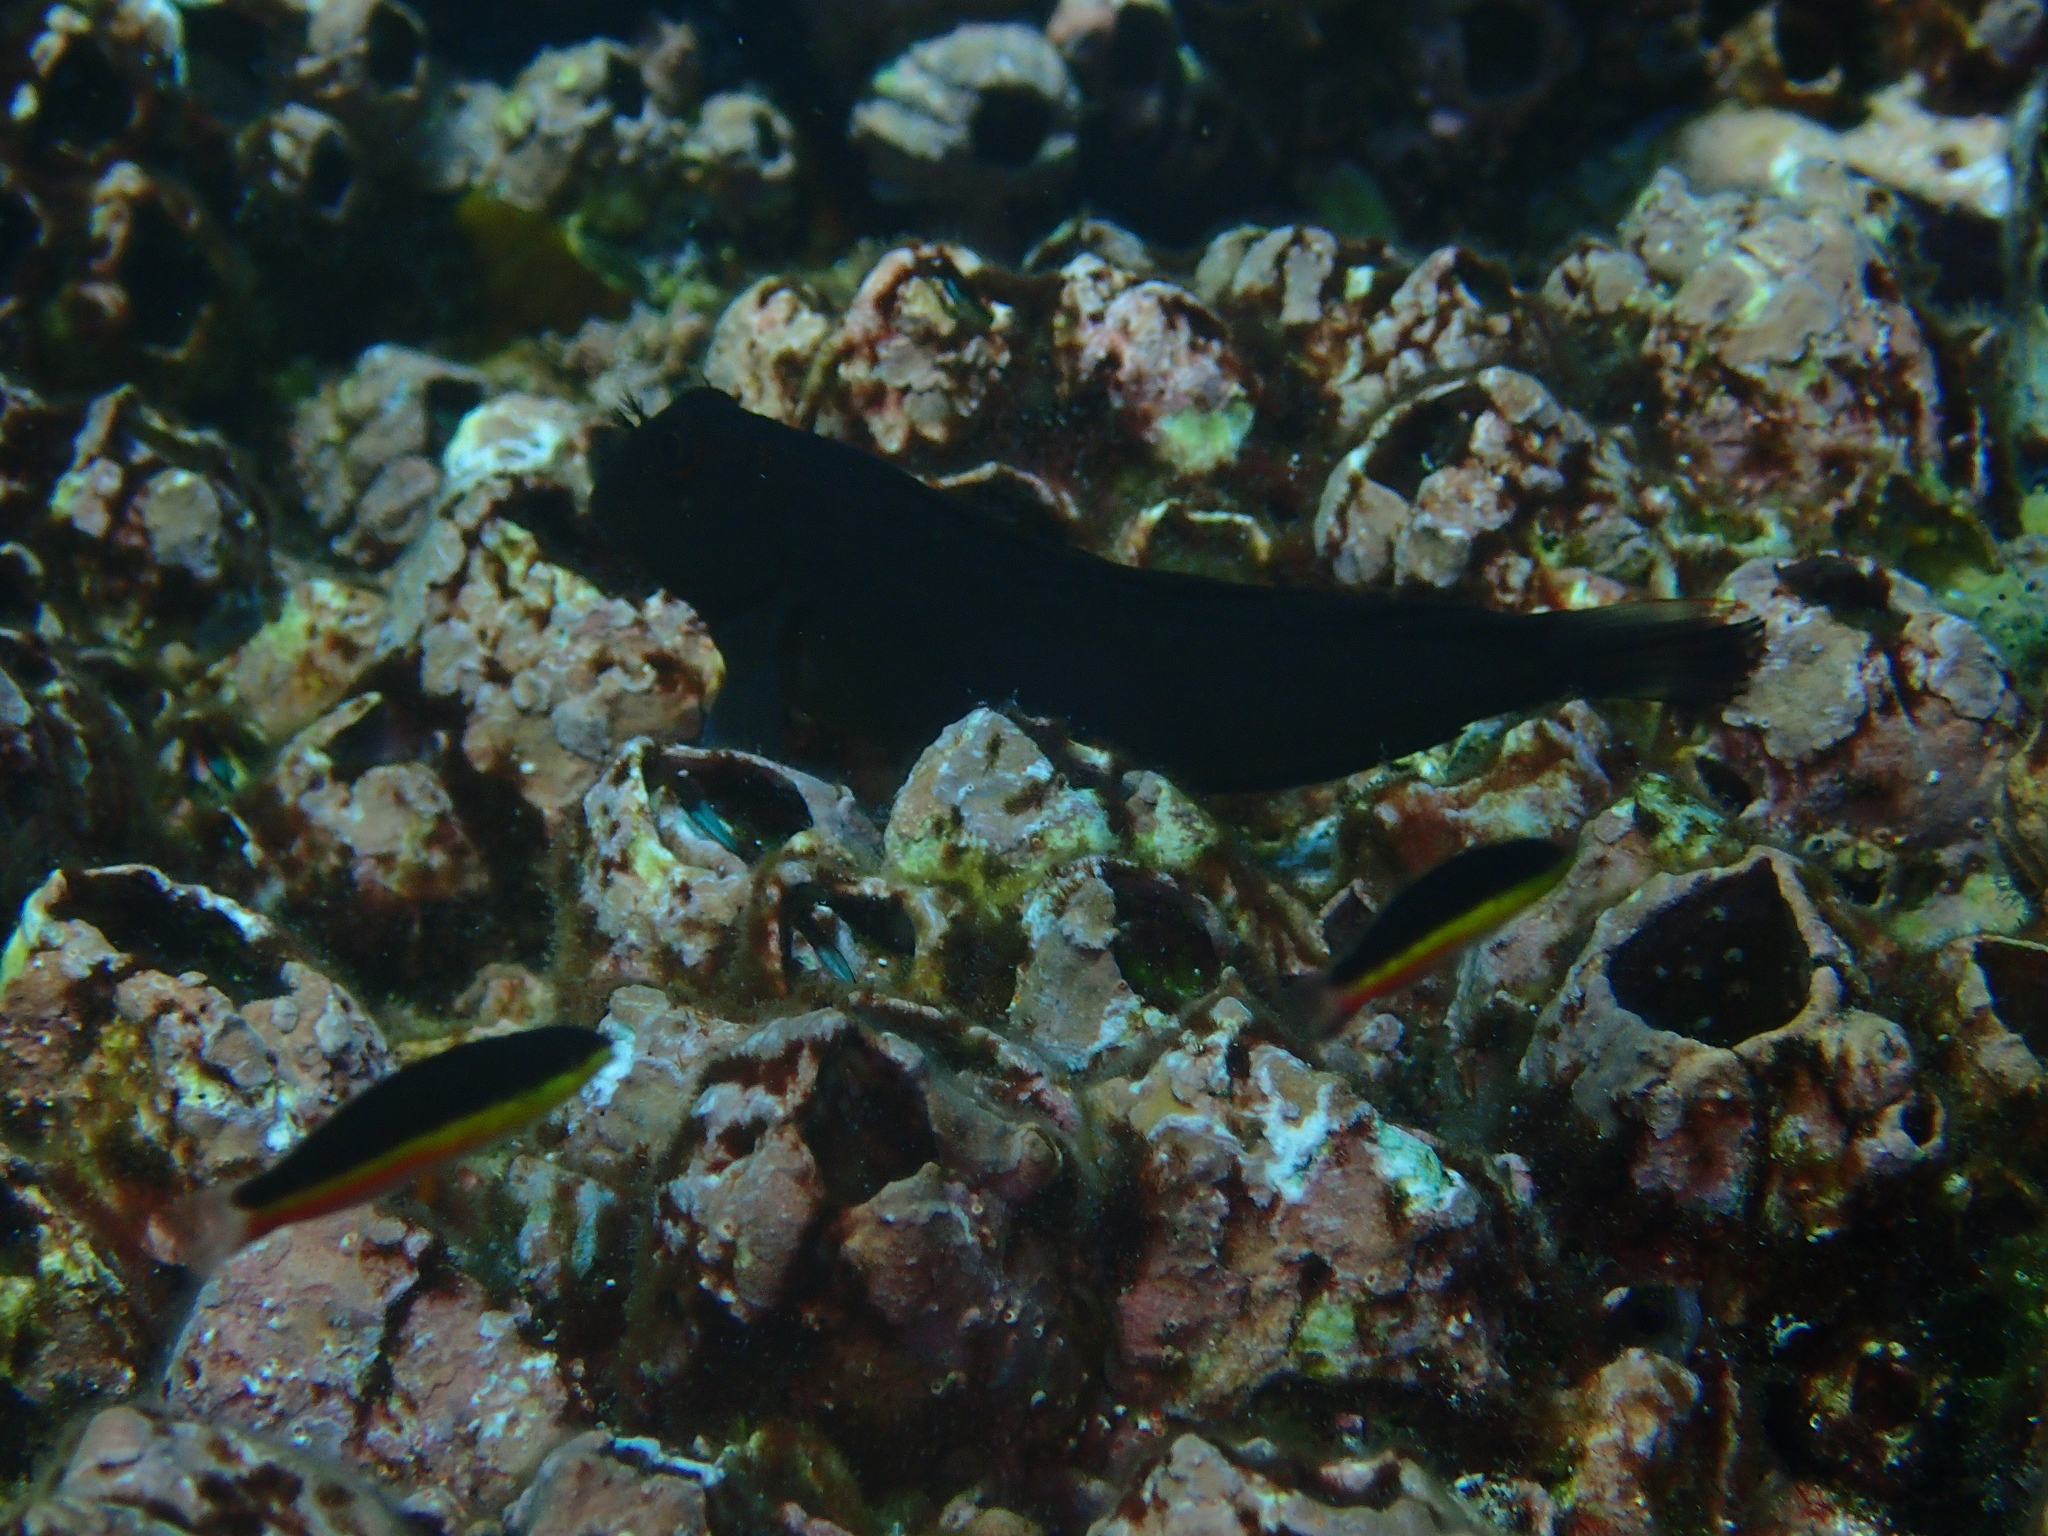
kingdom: Animalia
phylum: Chordata
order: Perciformes
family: Blenniidae
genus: Ophioblennius
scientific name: Ophioblennius steindachneri
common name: Panamic fanged blenny
